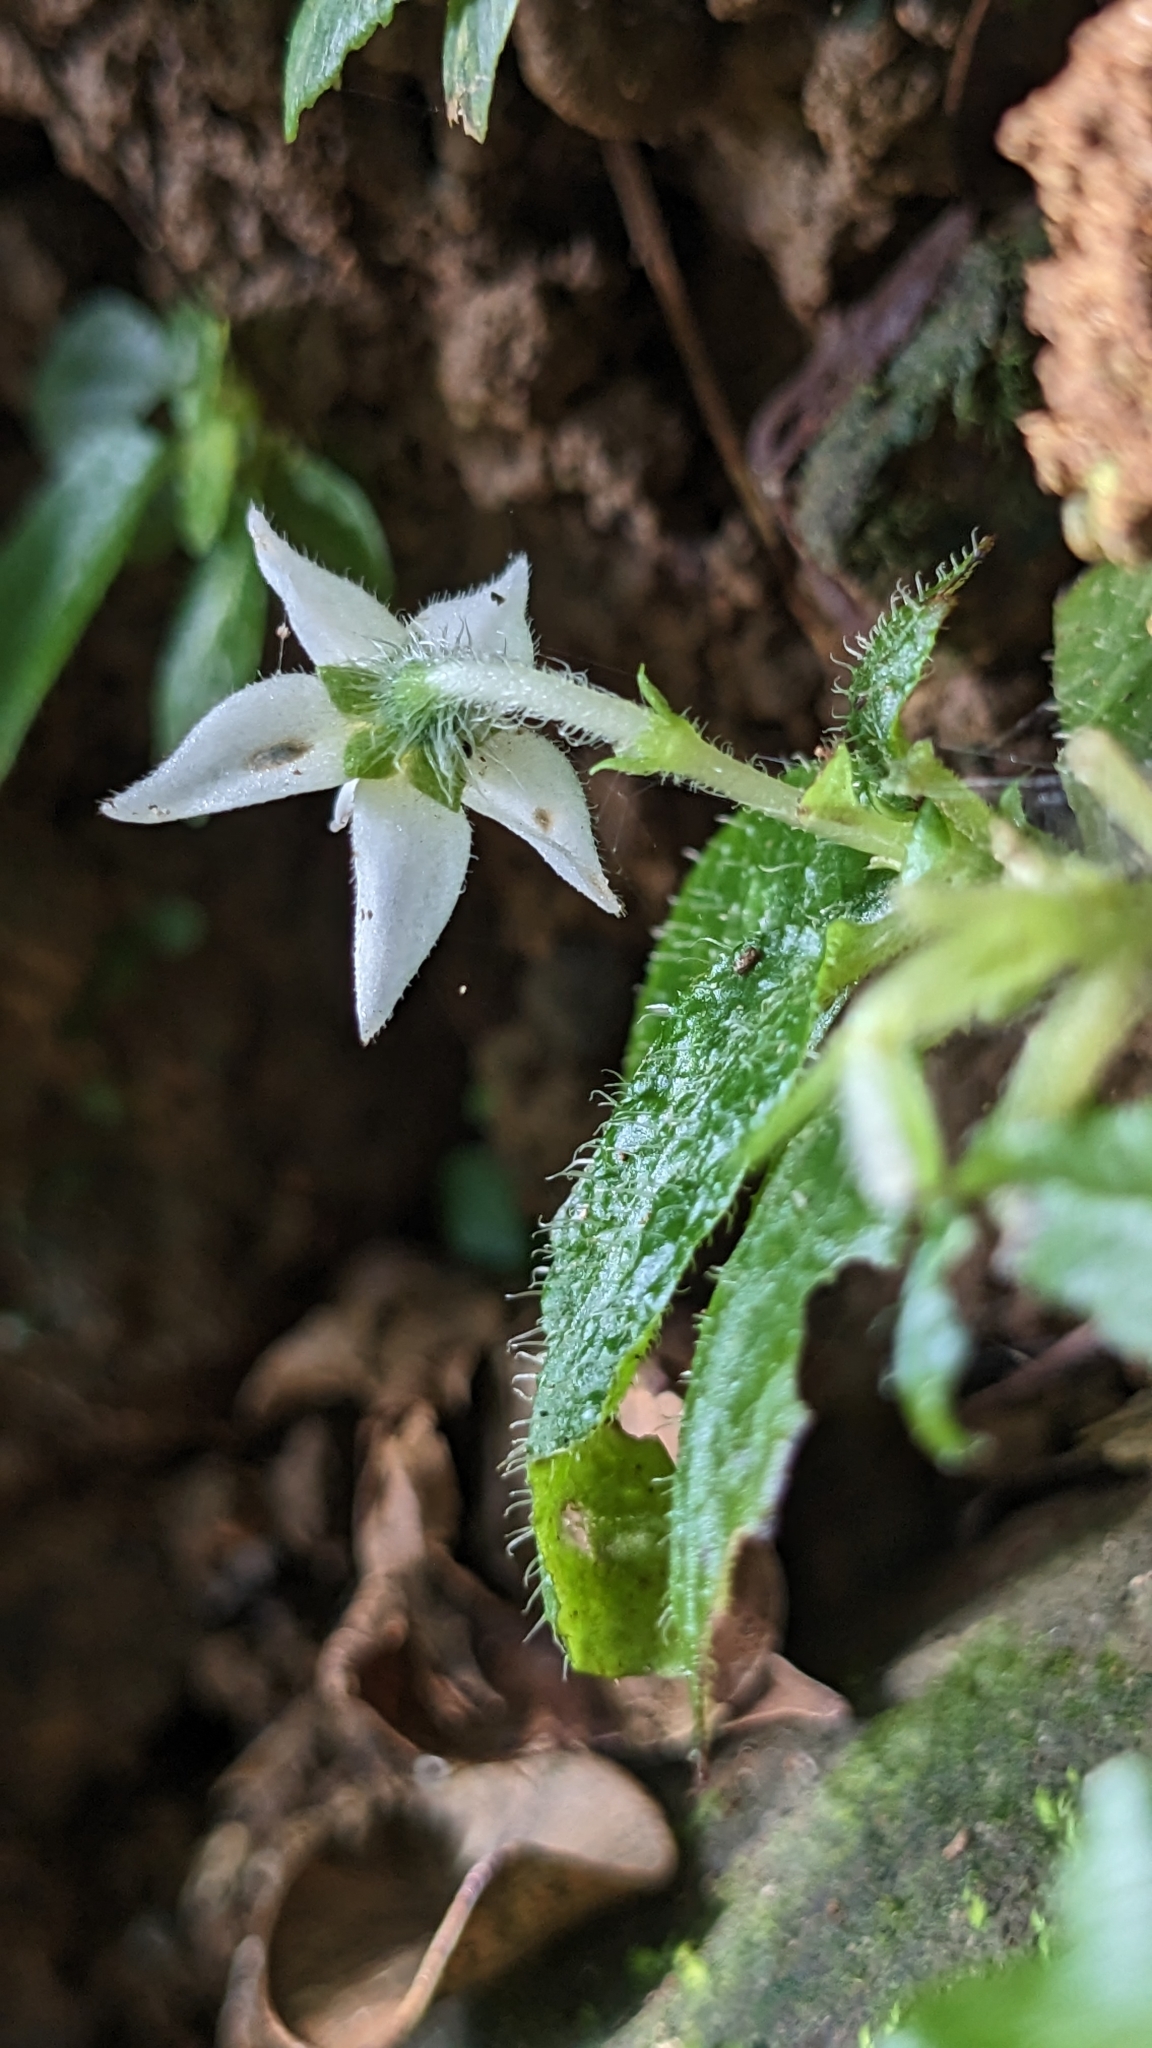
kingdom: Plantae
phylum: Tracheophyta
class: Magnoliopsida
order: Gentianales
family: Rubiaceae
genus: Argostemma
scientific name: Argostemma solaniflorum
